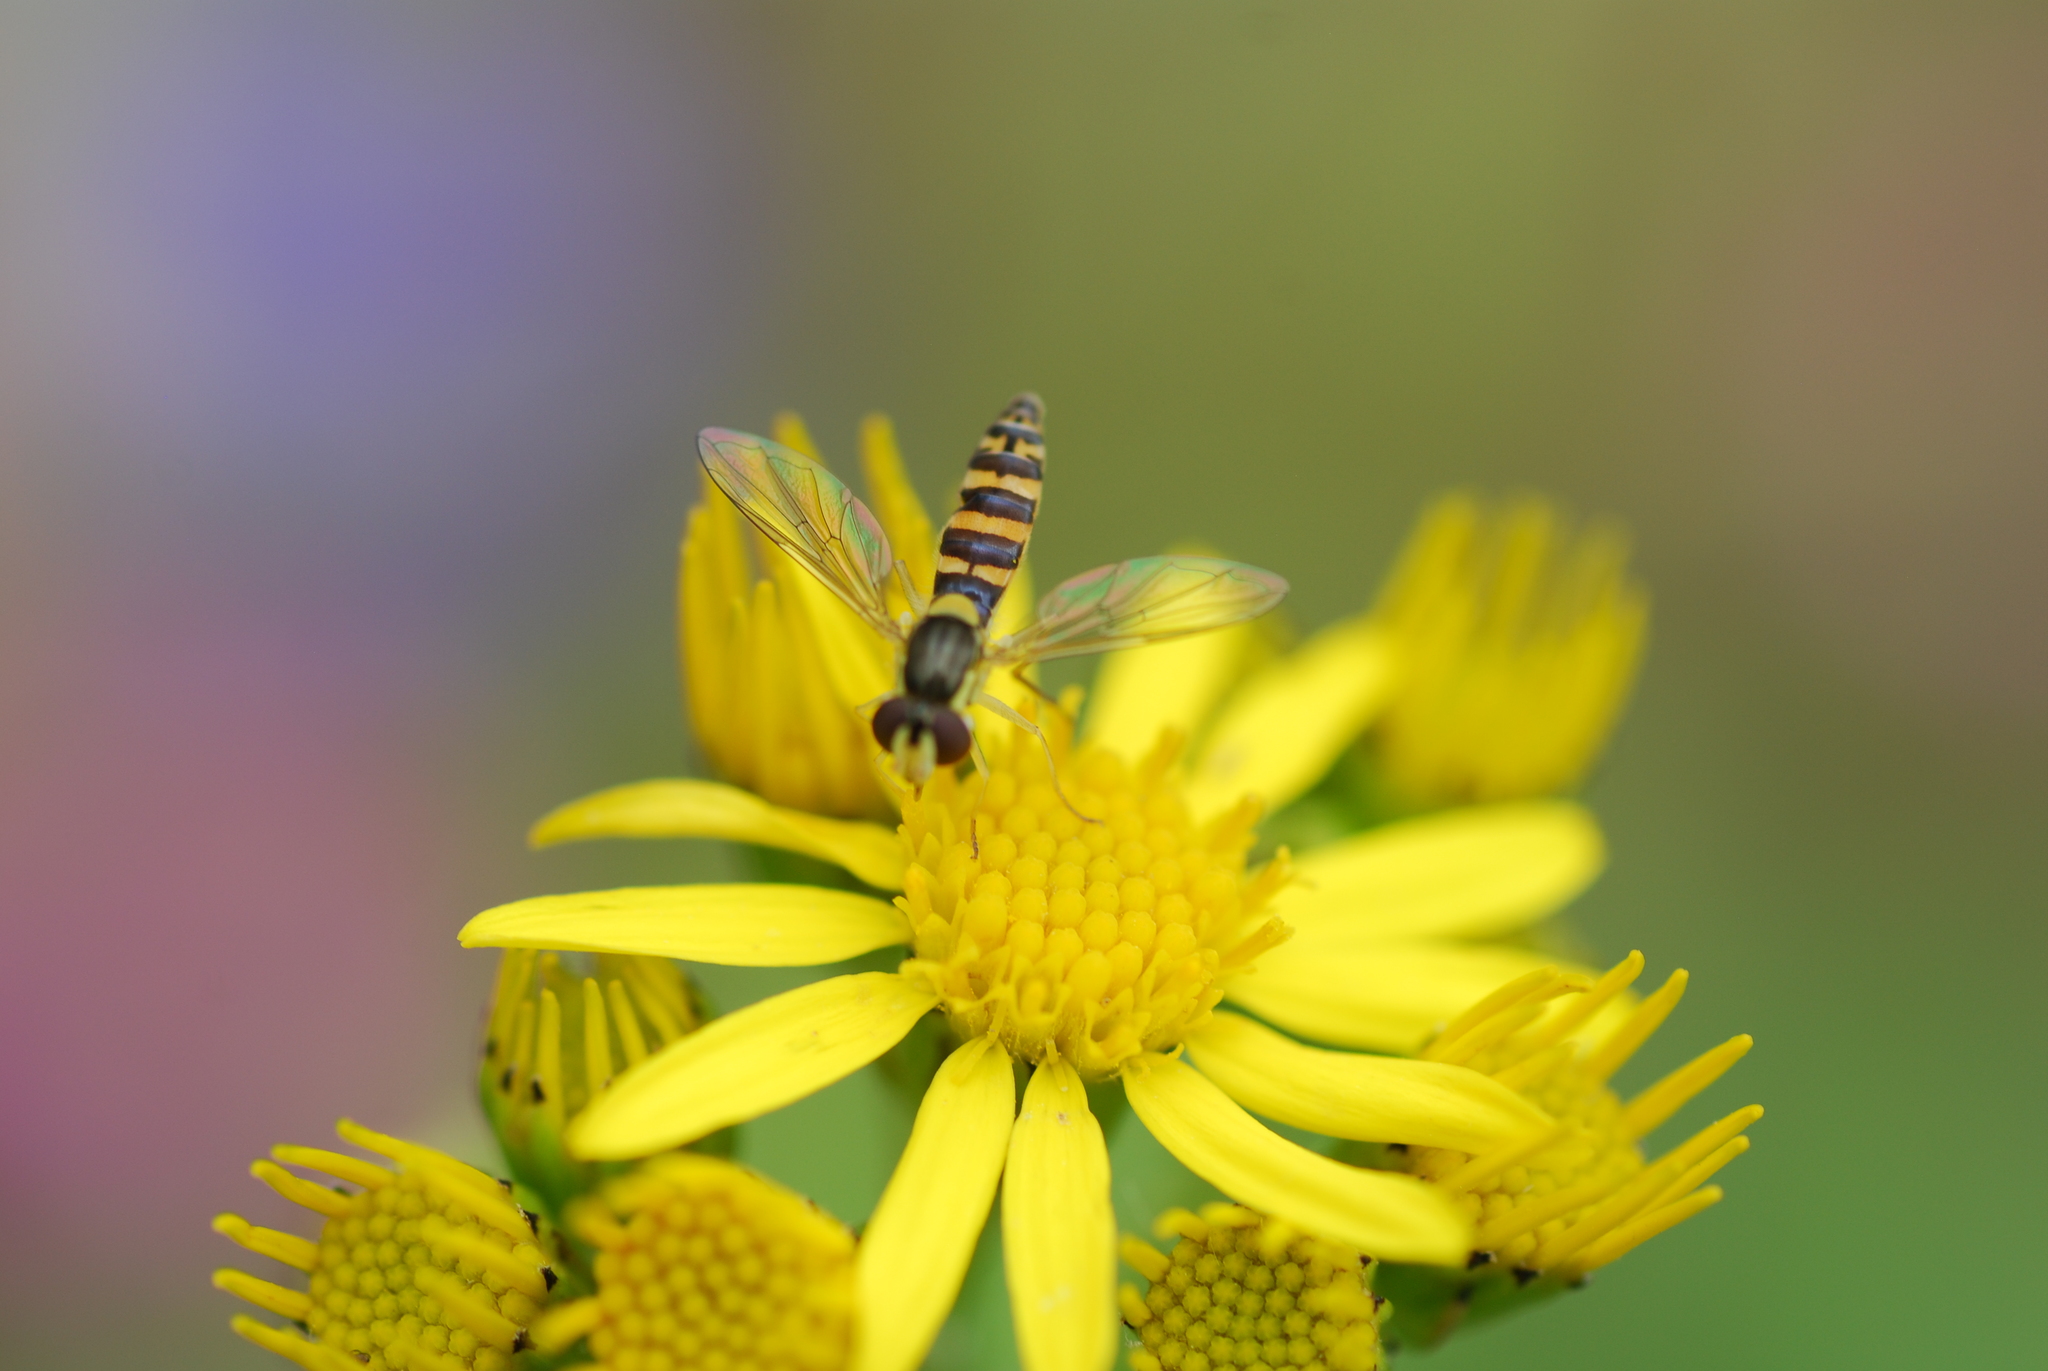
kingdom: Animalia
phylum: Arthropoda
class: Insecta
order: Diptera
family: Syrphidae
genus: Sphaerophoria
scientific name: Sphaerophoria
